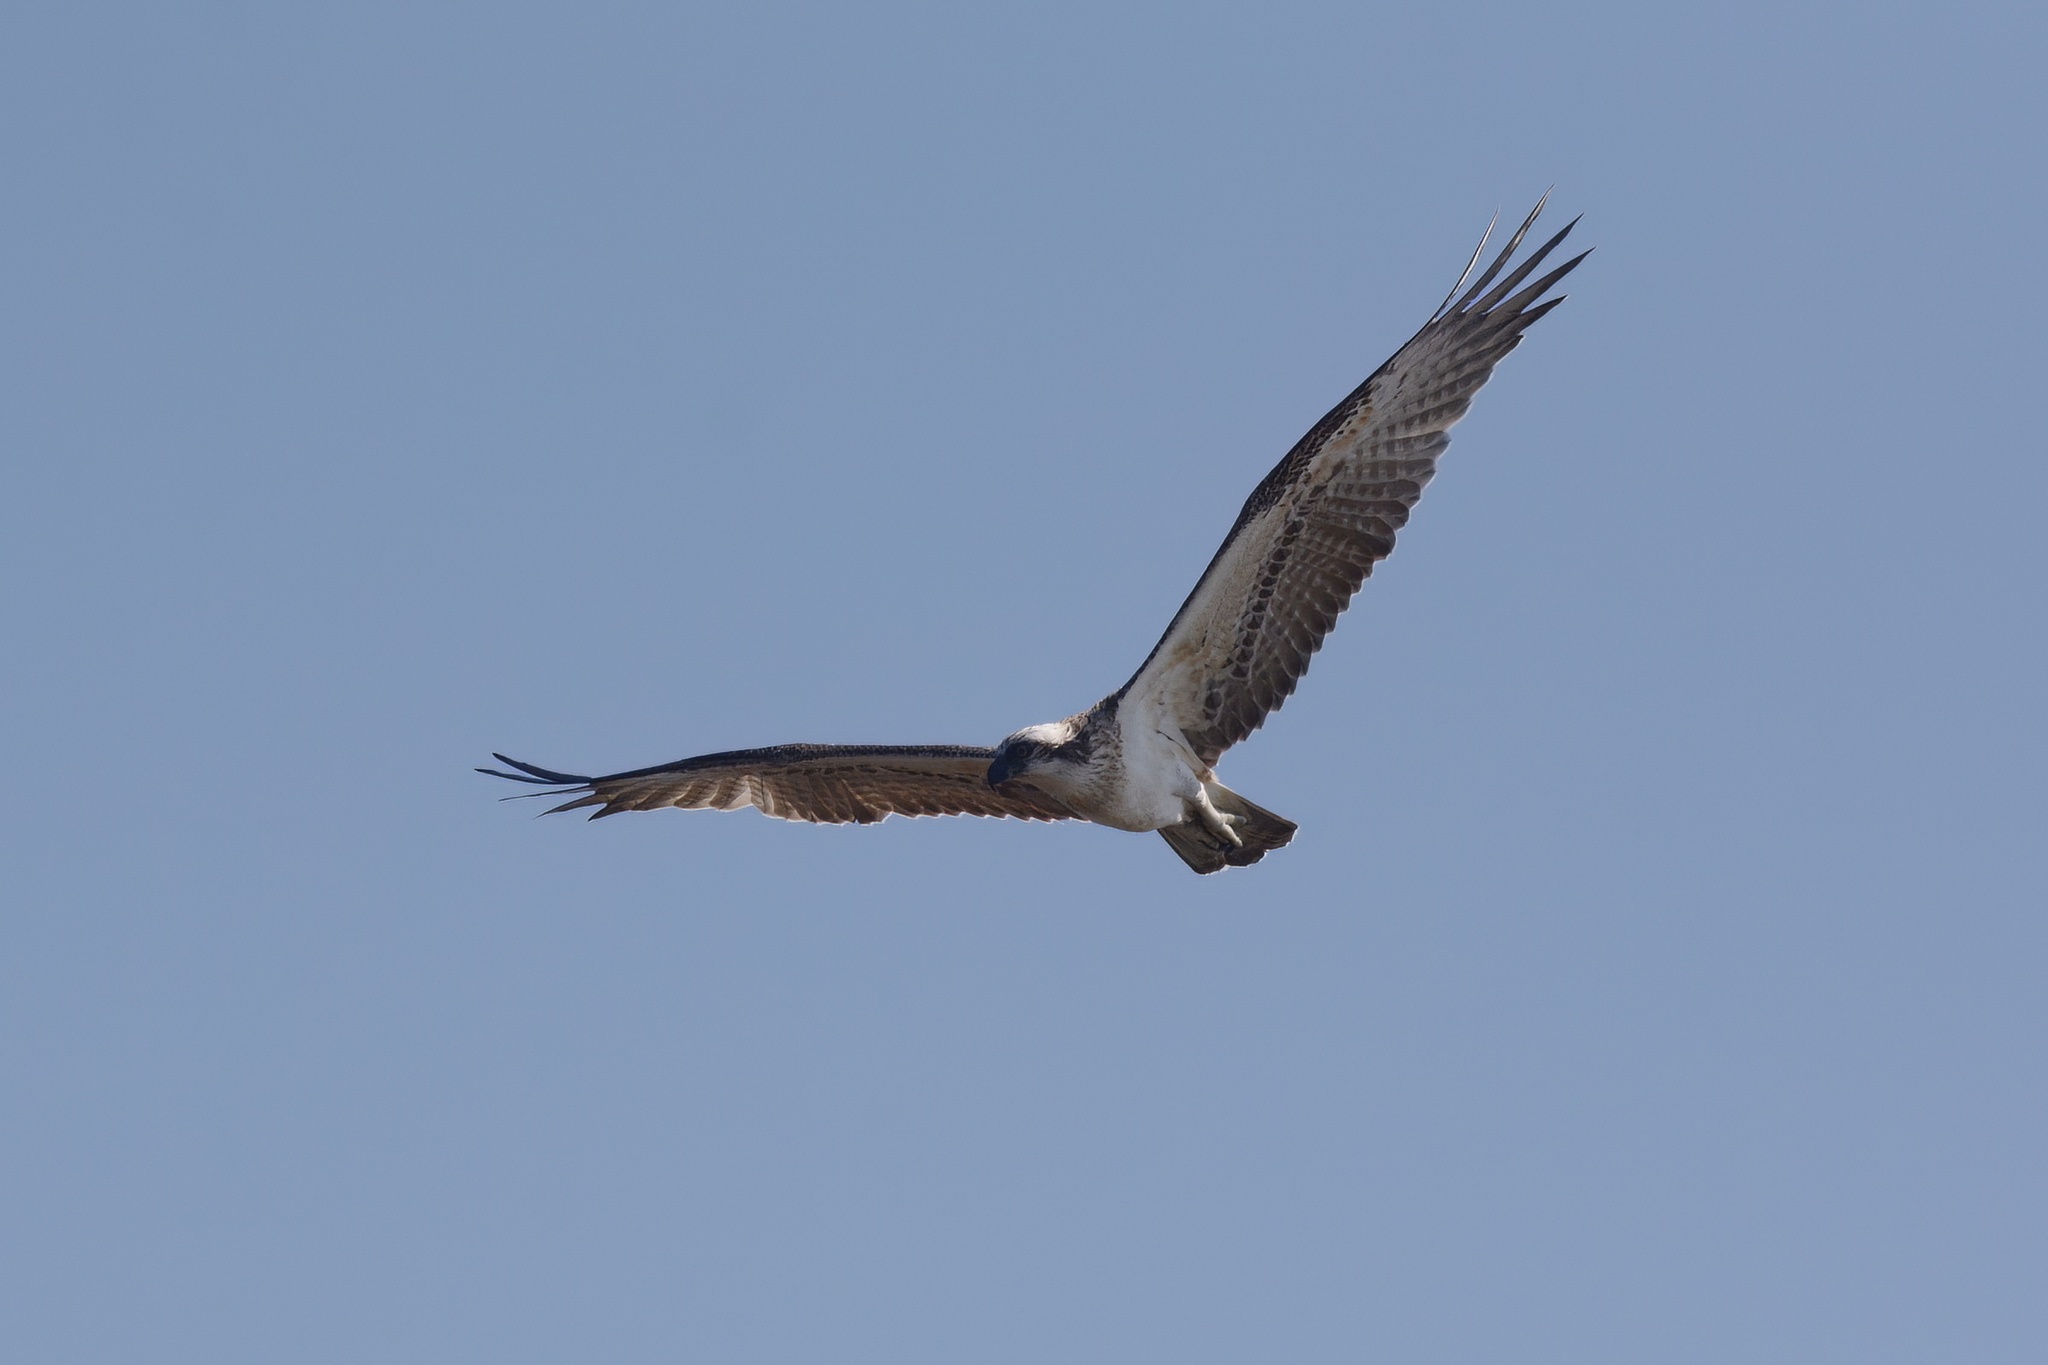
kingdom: Animalia
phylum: Chordata
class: Aves
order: Accipitriformes
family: Pandionidae
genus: Pandion
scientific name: Pandion cristatus
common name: Eastern osprey
